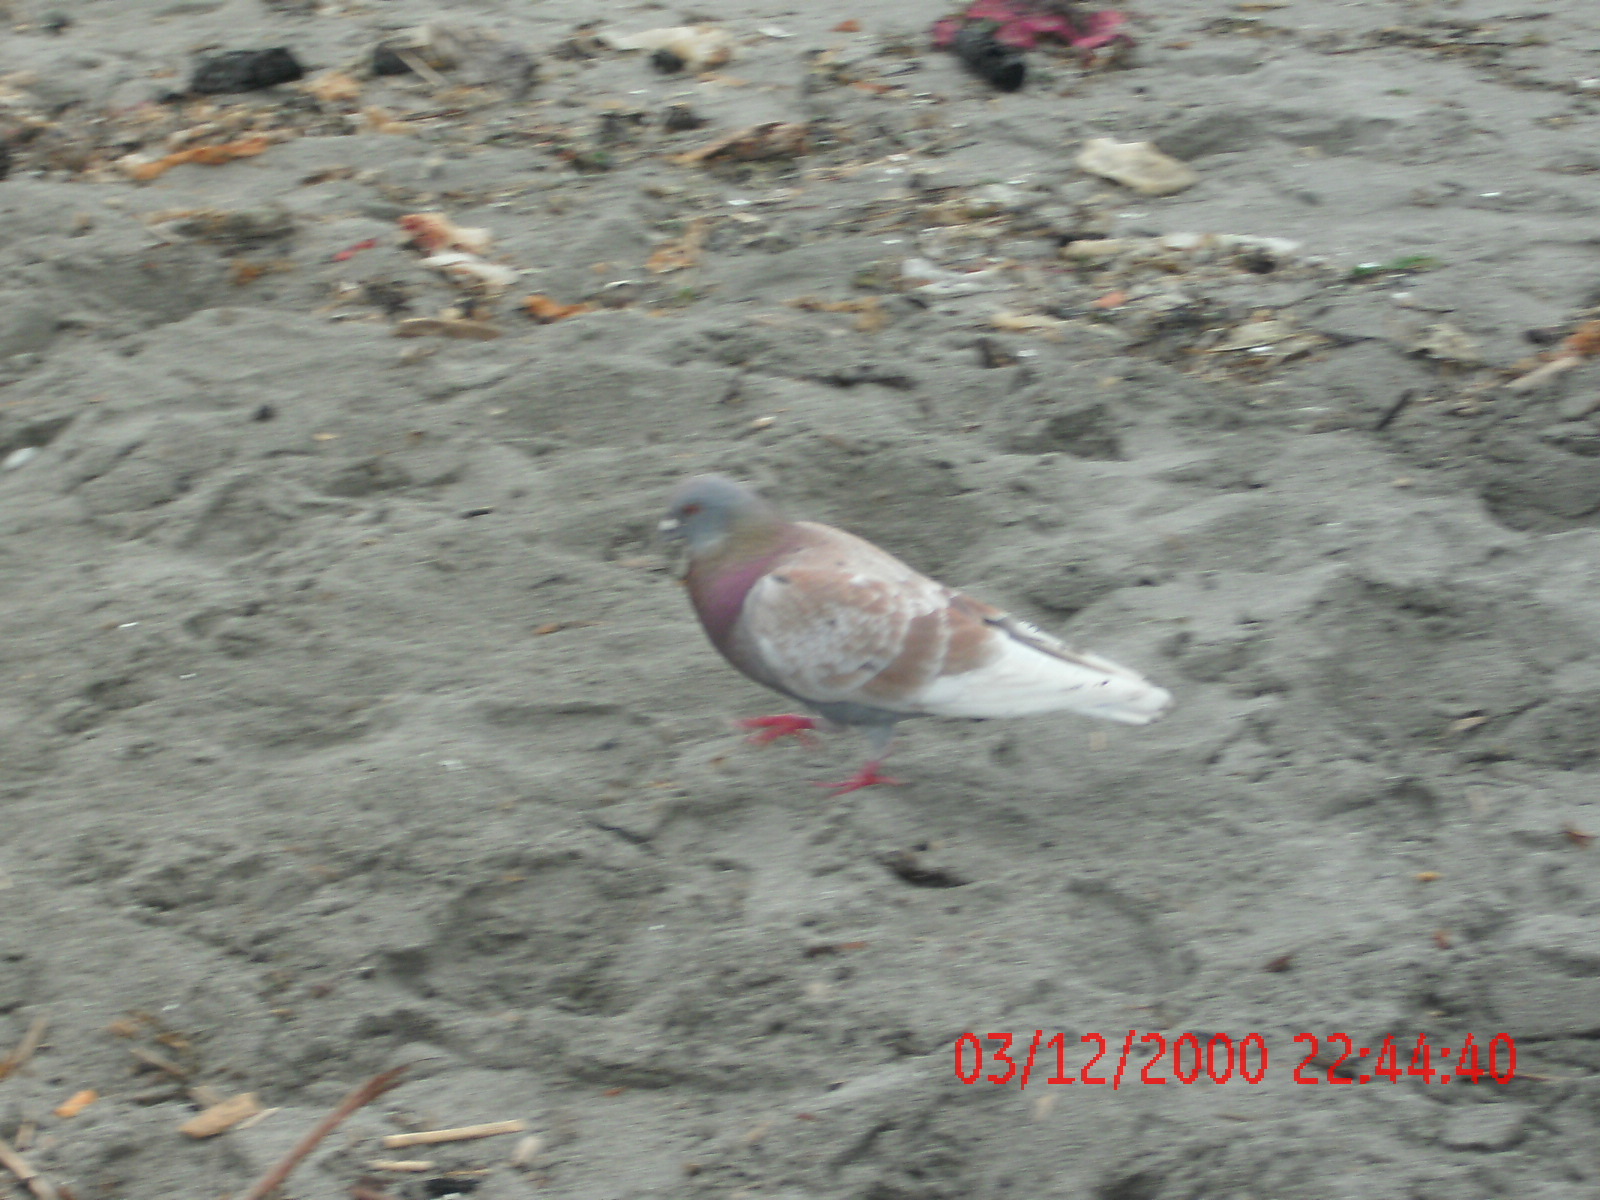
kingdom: Animalia
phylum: Chordata
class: Aves
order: Columbiformes
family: Columbidae
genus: Columba
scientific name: Columba livia
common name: Rock pigeon
